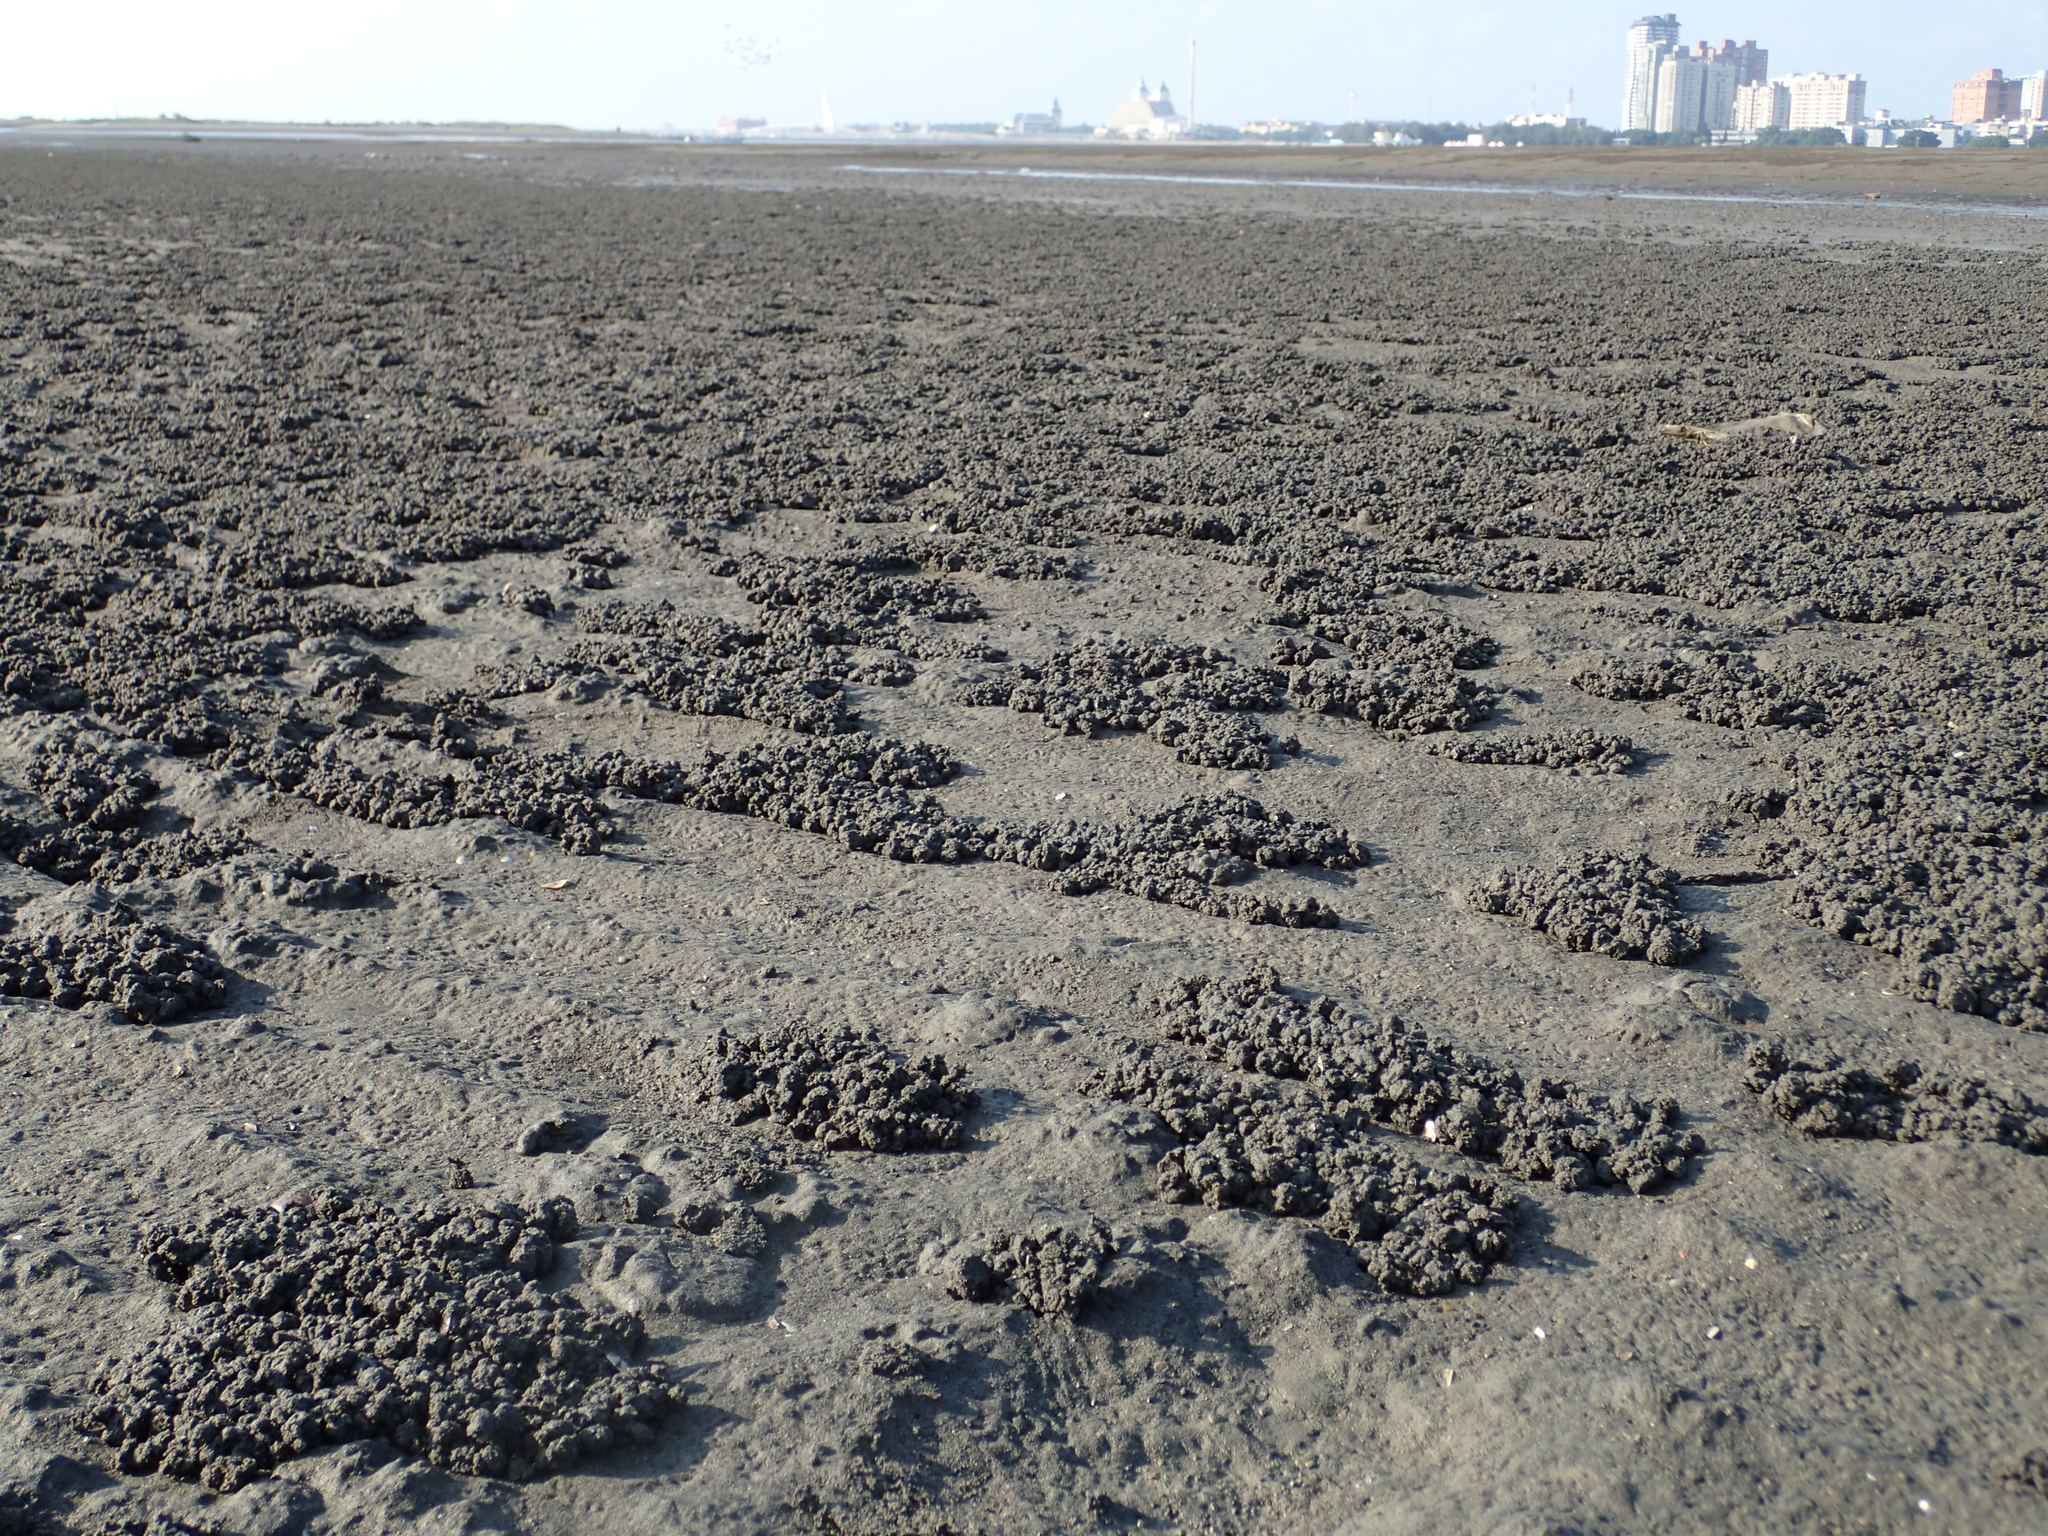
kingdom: Animalia
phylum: Arthropoda
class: Malacostraca
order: Decapoda
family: Mictyridae
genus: Mictyris
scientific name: Mictyris brevidactylus
